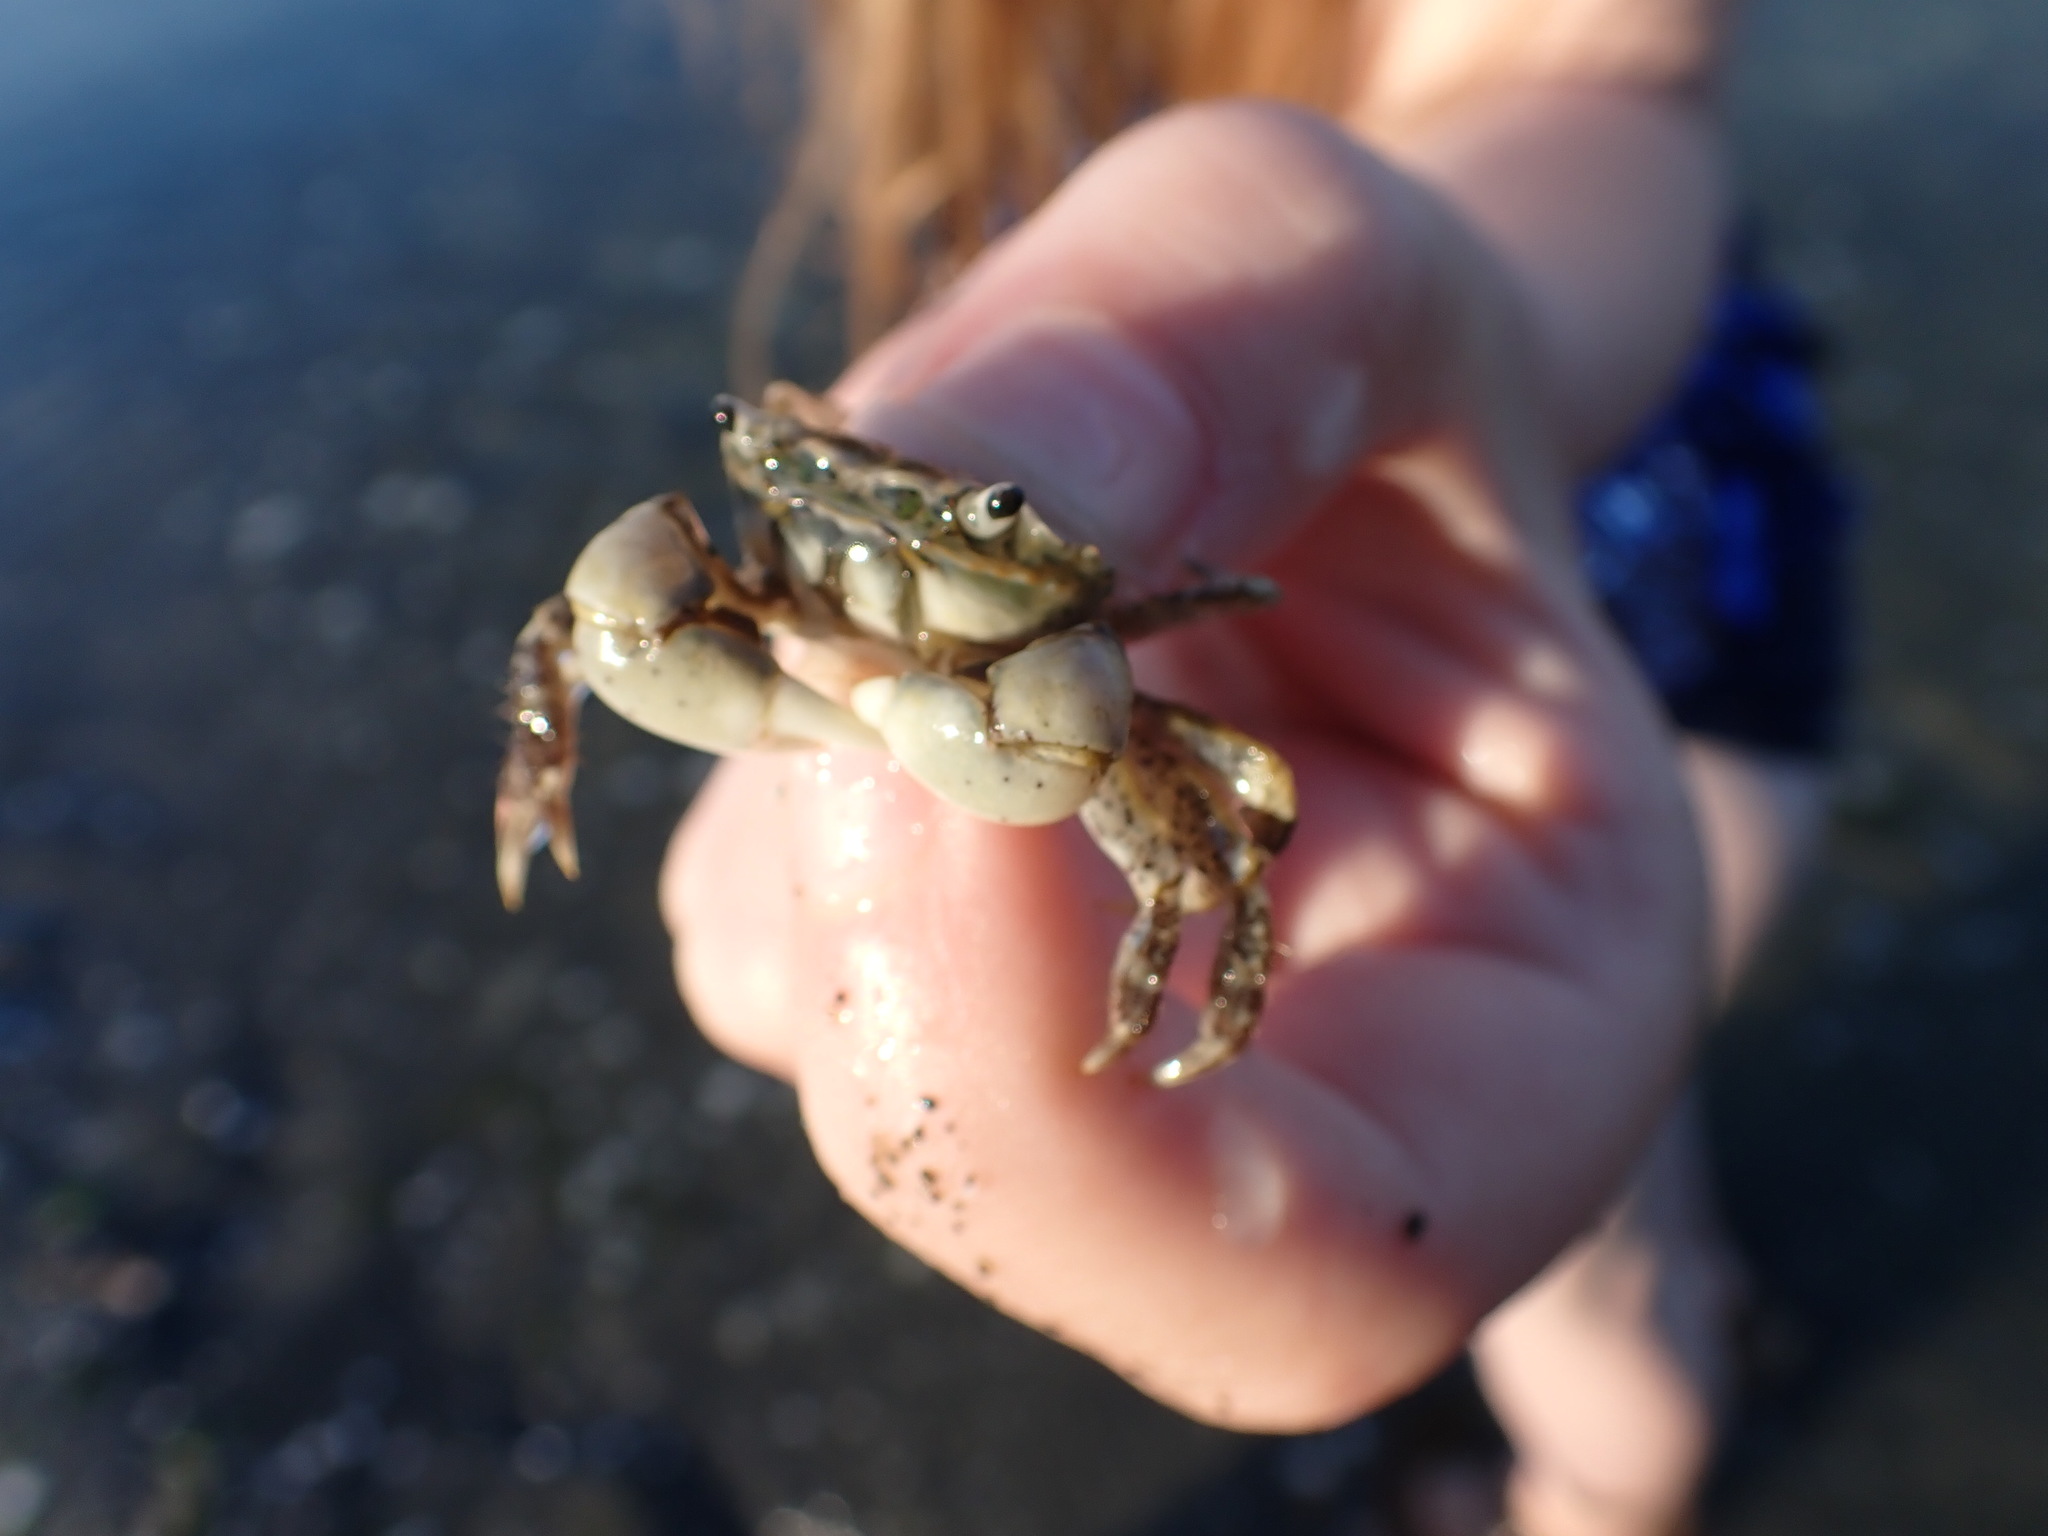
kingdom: Animalia
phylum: Arthropoda
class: Malacostraca
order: Decapoda
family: Varunidae
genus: Hemigrapsus
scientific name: Hemigrapsus oregonensis
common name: Yellow shore crab
